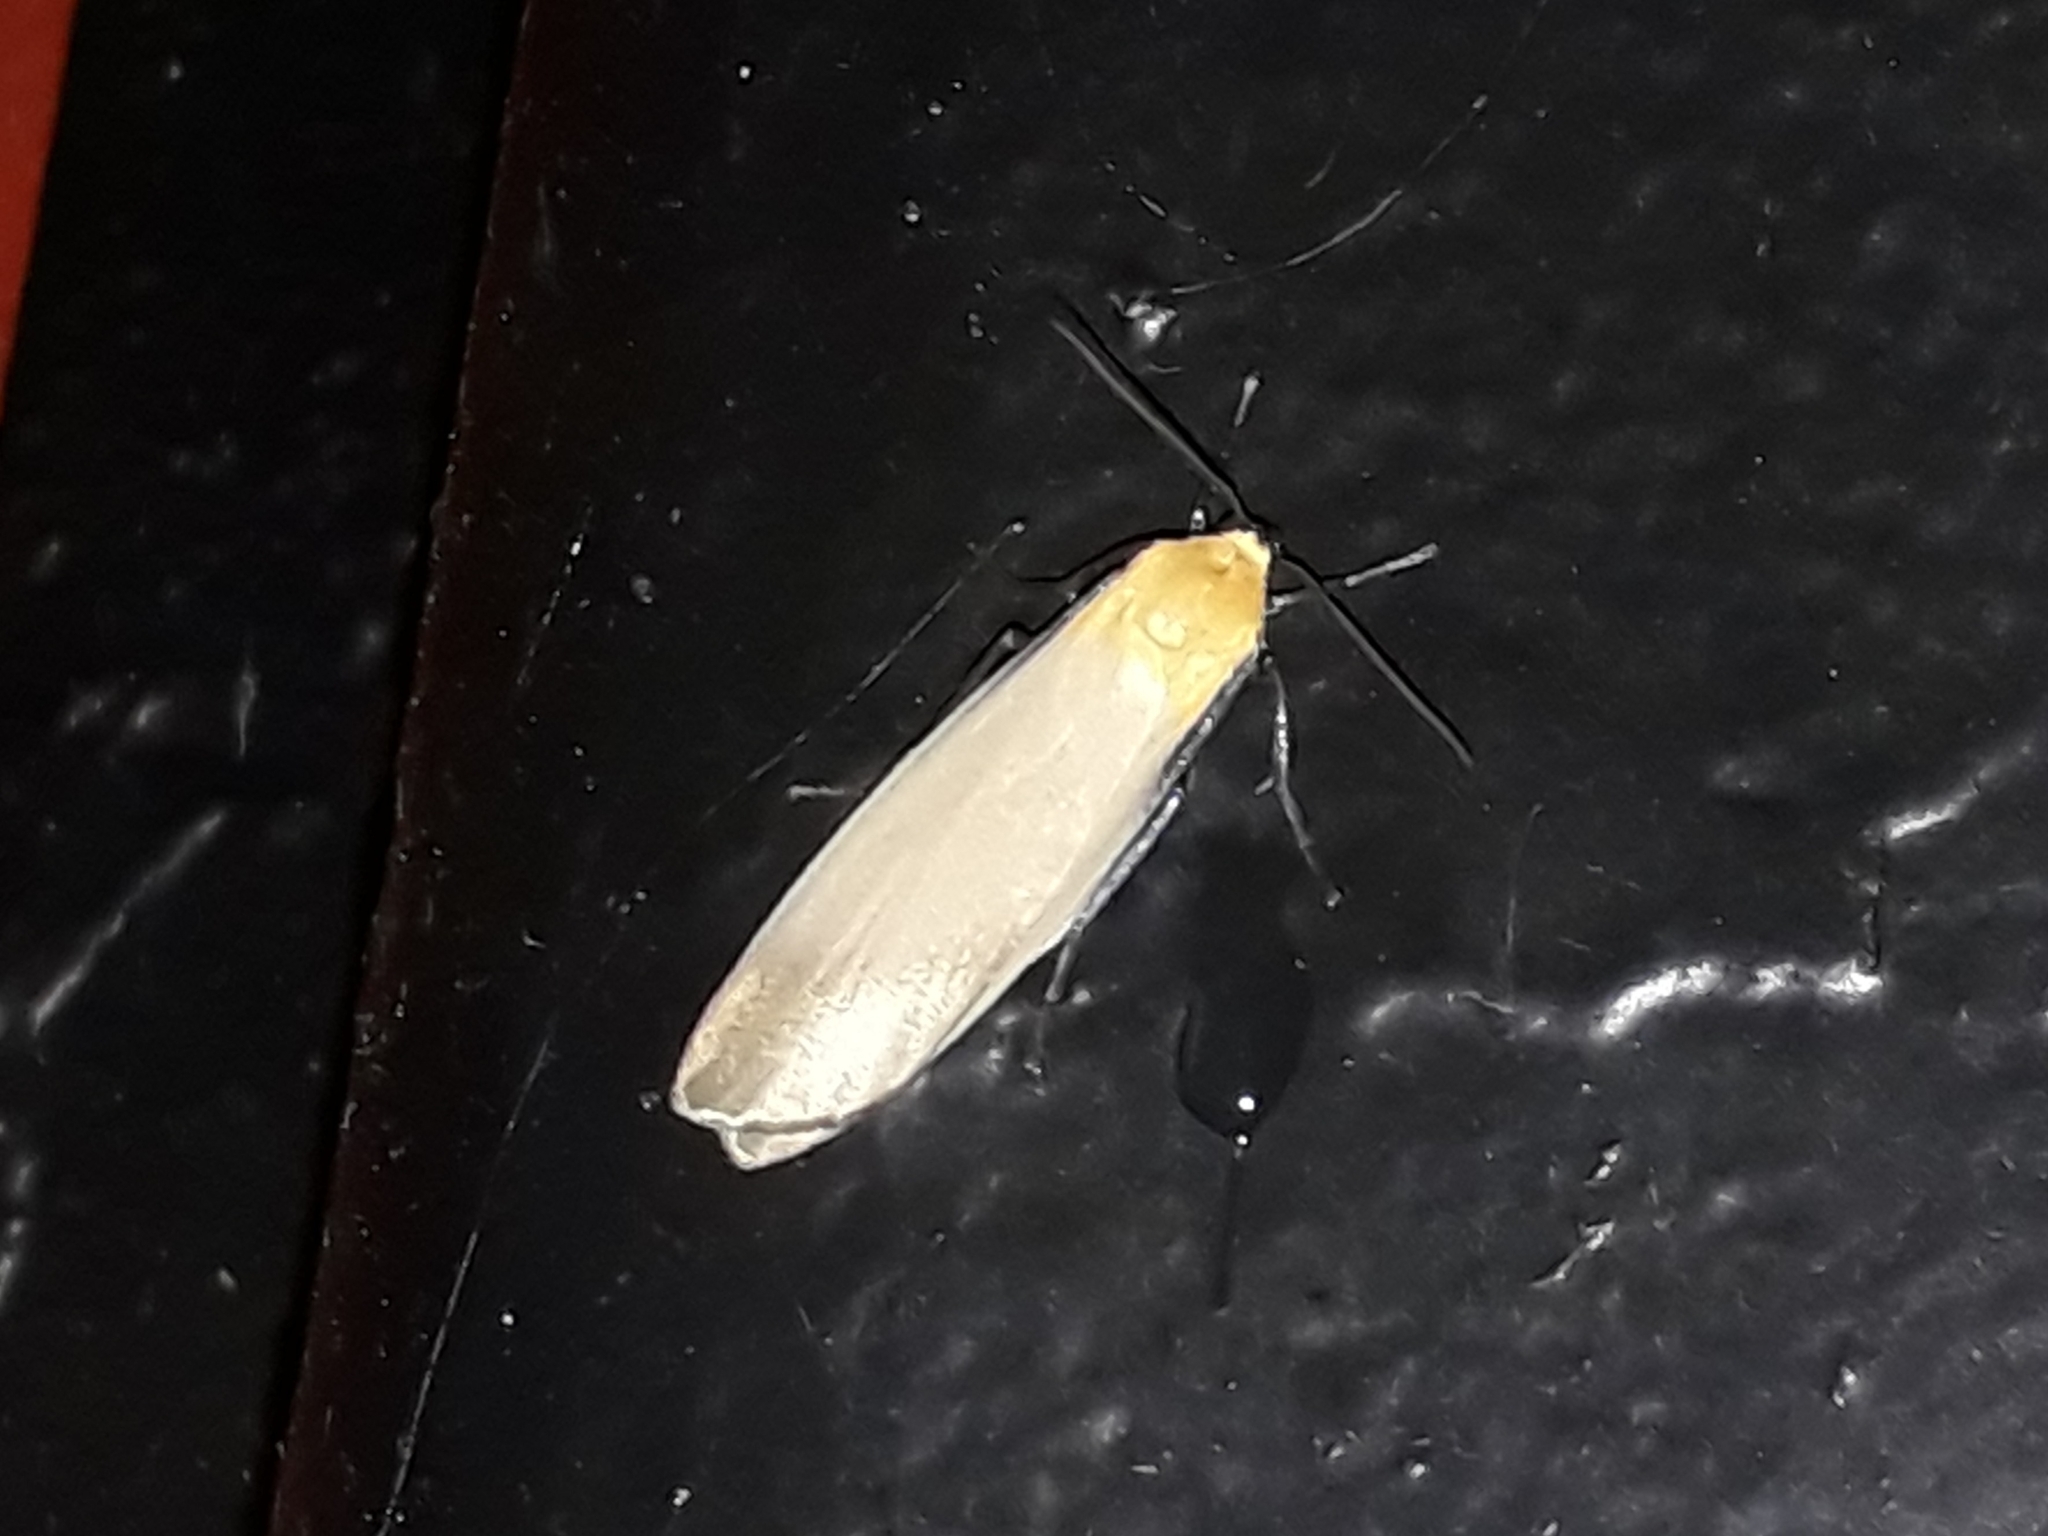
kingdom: Animalia
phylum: Arthropoda
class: Insecta
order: Lepidoptera
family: Erebidae
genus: Lithosia
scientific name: Lithosia quadra
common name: Four-spotted footman
